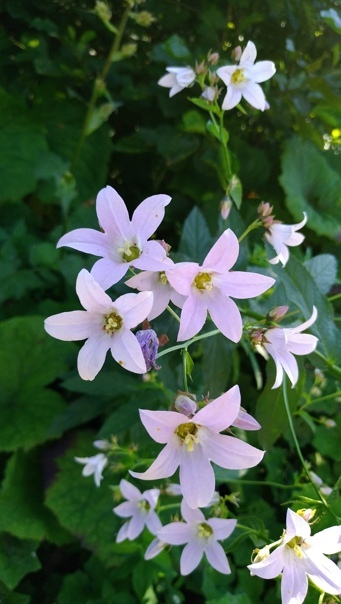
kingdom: Plantae
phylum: Tracheophyta
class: Magnoliopsida
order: Asterales
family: Campanulaceae
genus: Campanula
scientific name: Campanula lactiflora
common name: Milky bellflower
